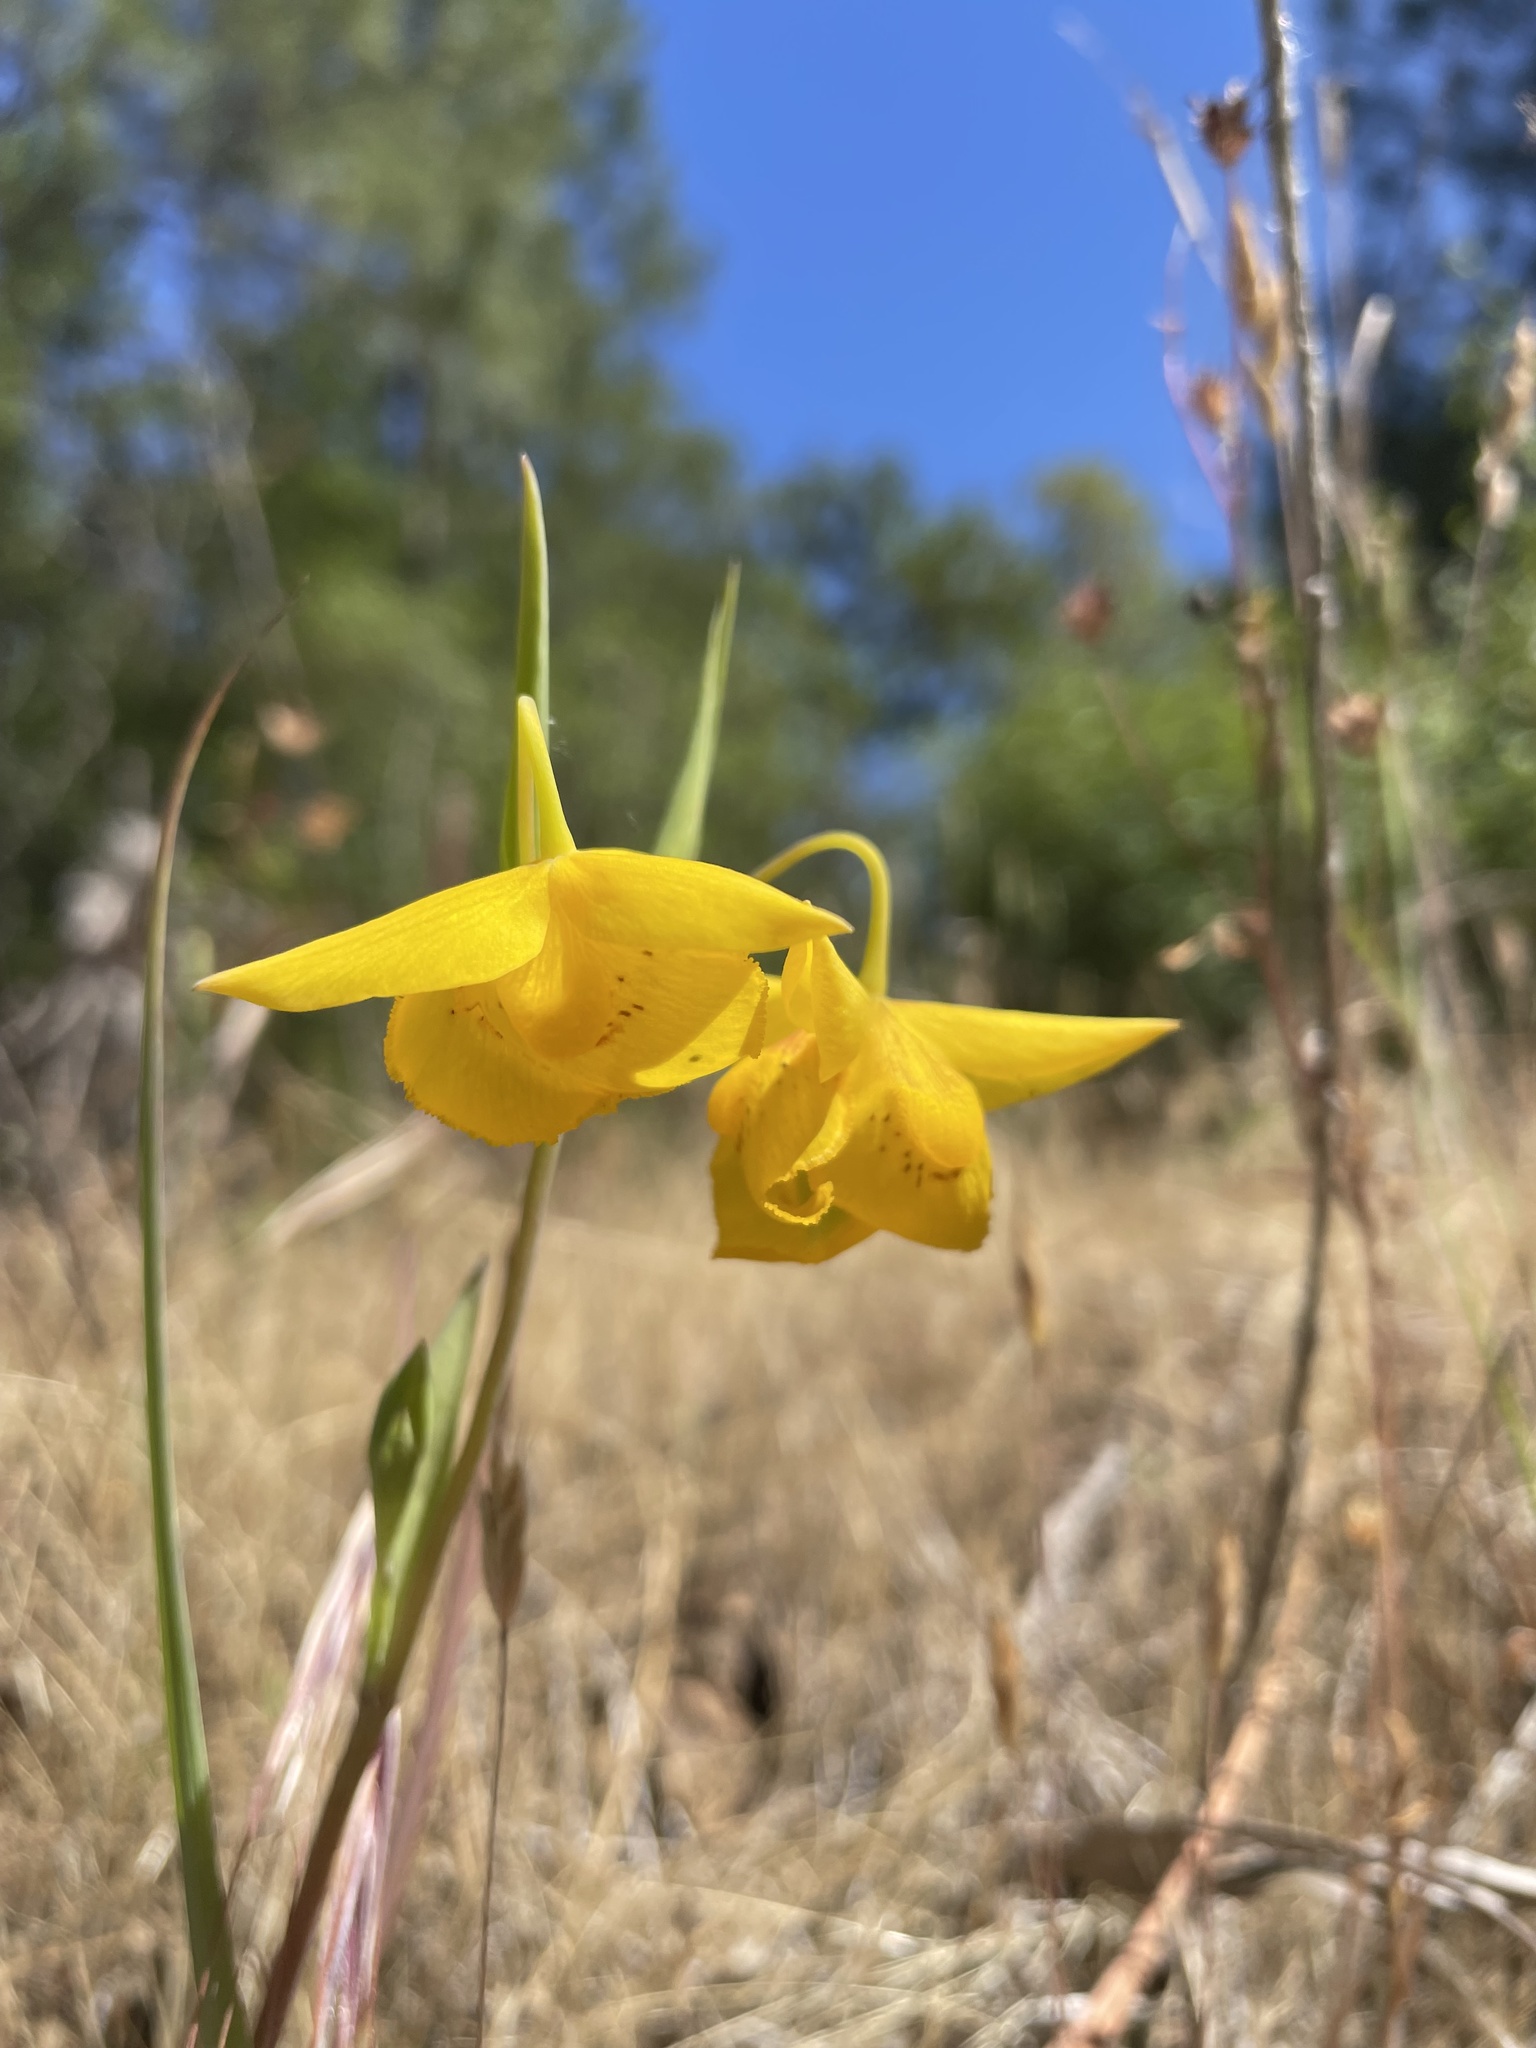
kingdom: Plantae
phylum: Tracheophyta
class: Liliopsida
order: Liliales
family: Liliaceae
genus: Calochortus
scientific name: Calochortus amabilis
